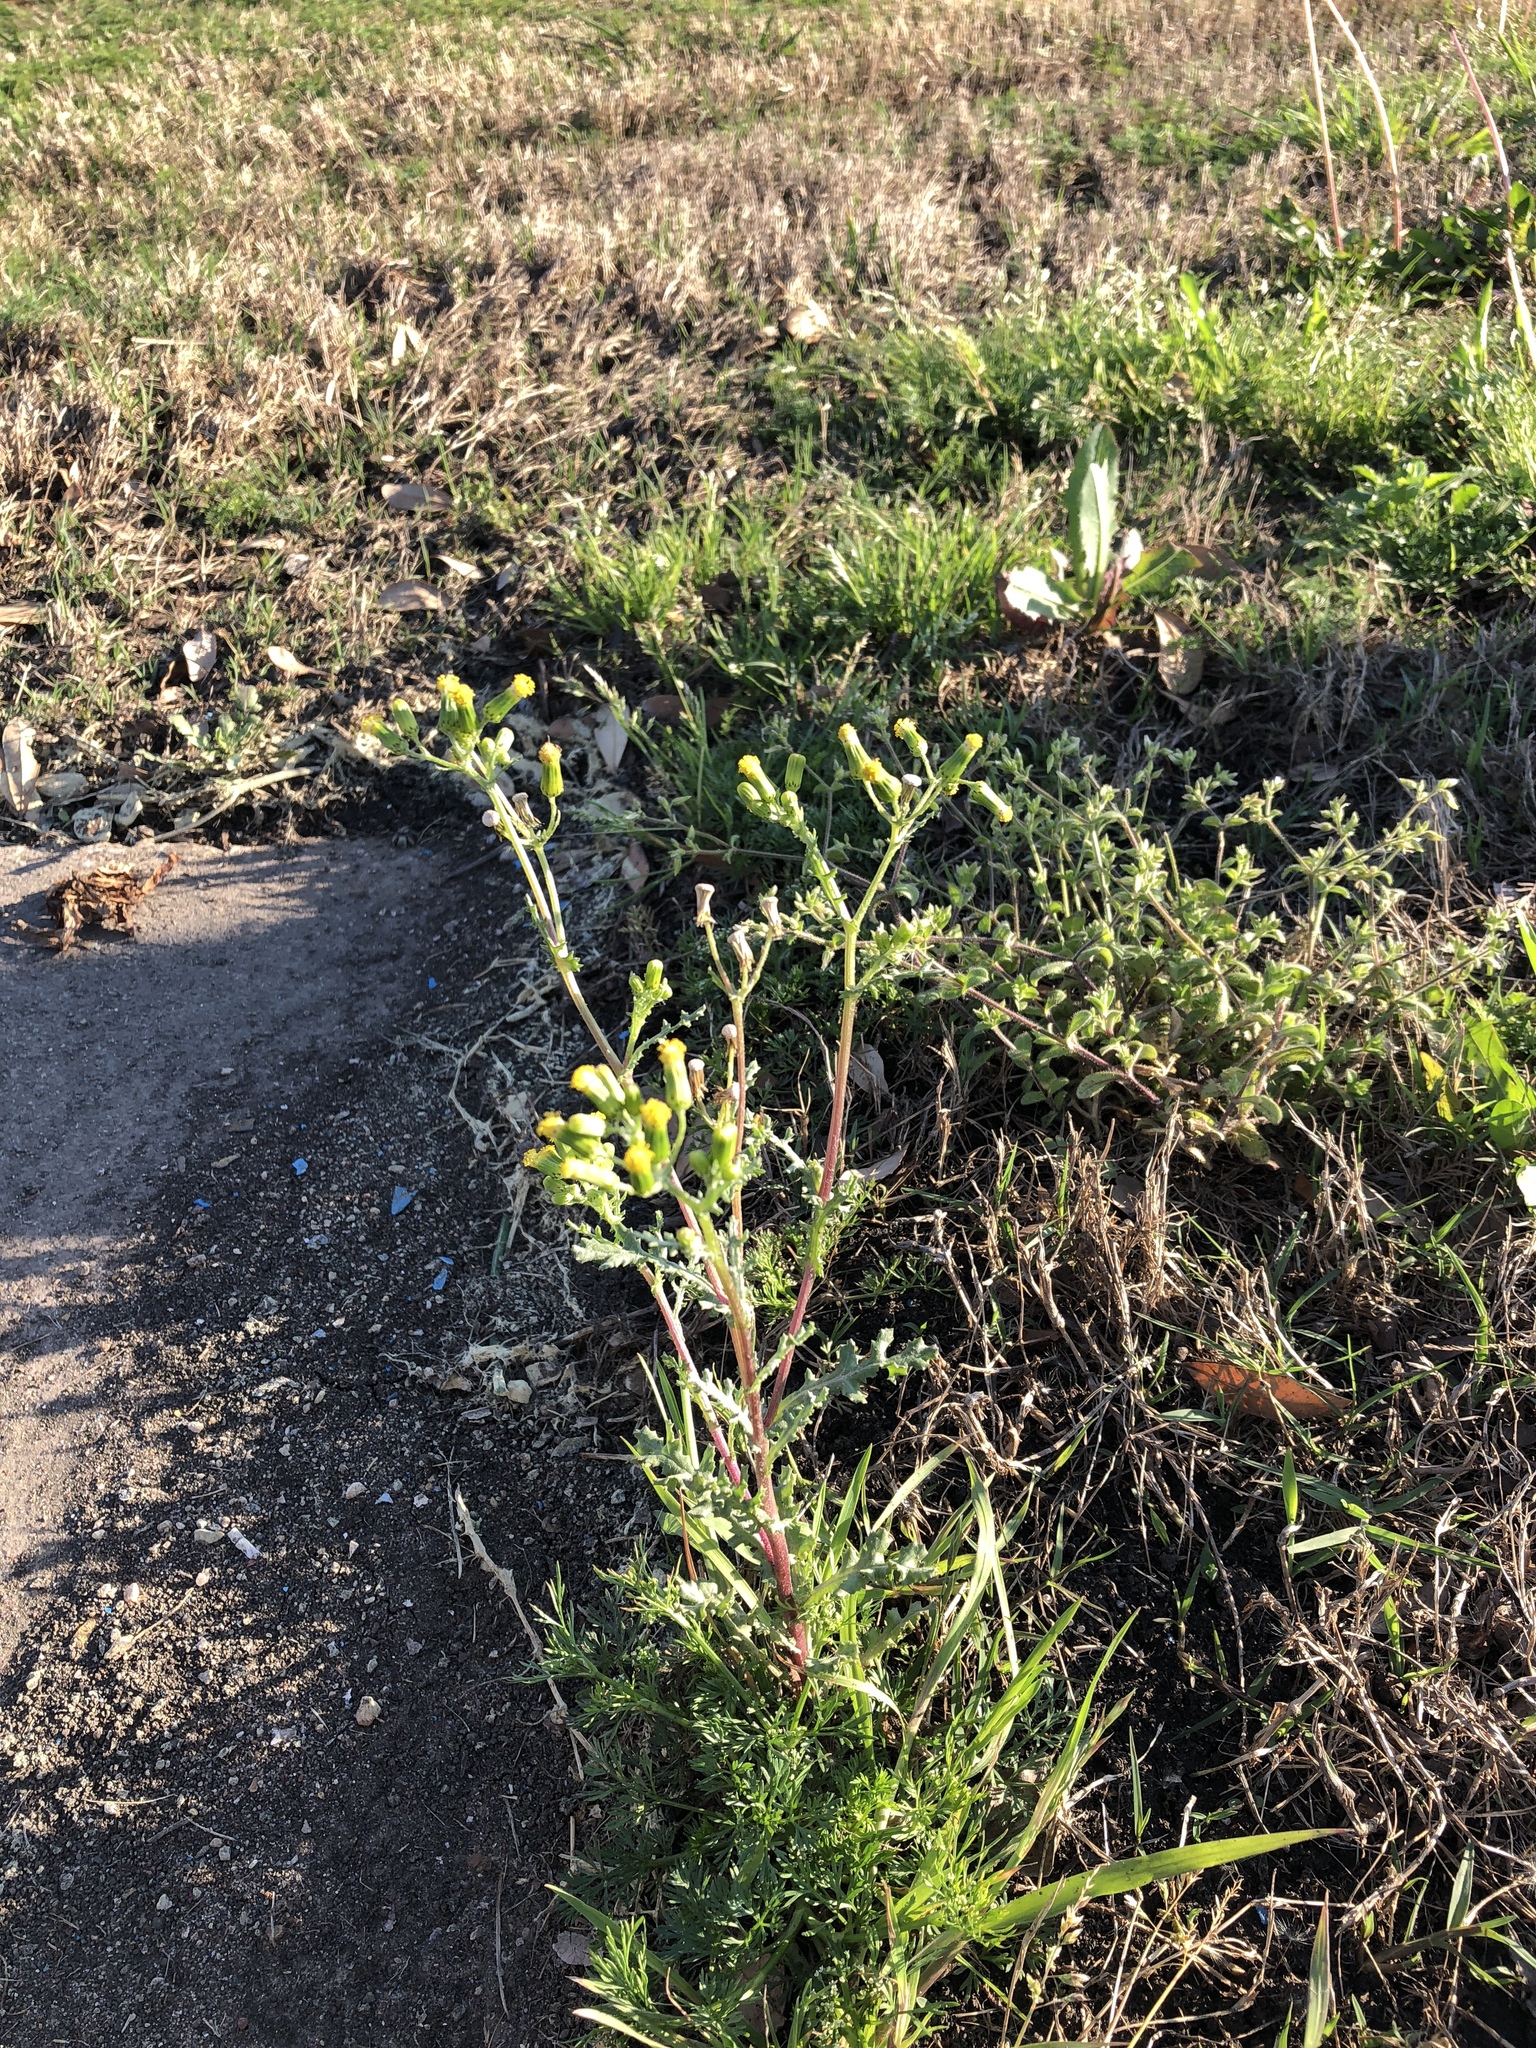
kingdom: Plantae
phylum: Tracheophyta
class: Magnoliopsida
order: Asterales
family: Asteraceae
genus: Senecio
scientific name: Senecio vulgaris
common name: Old-man-in-the-spring
